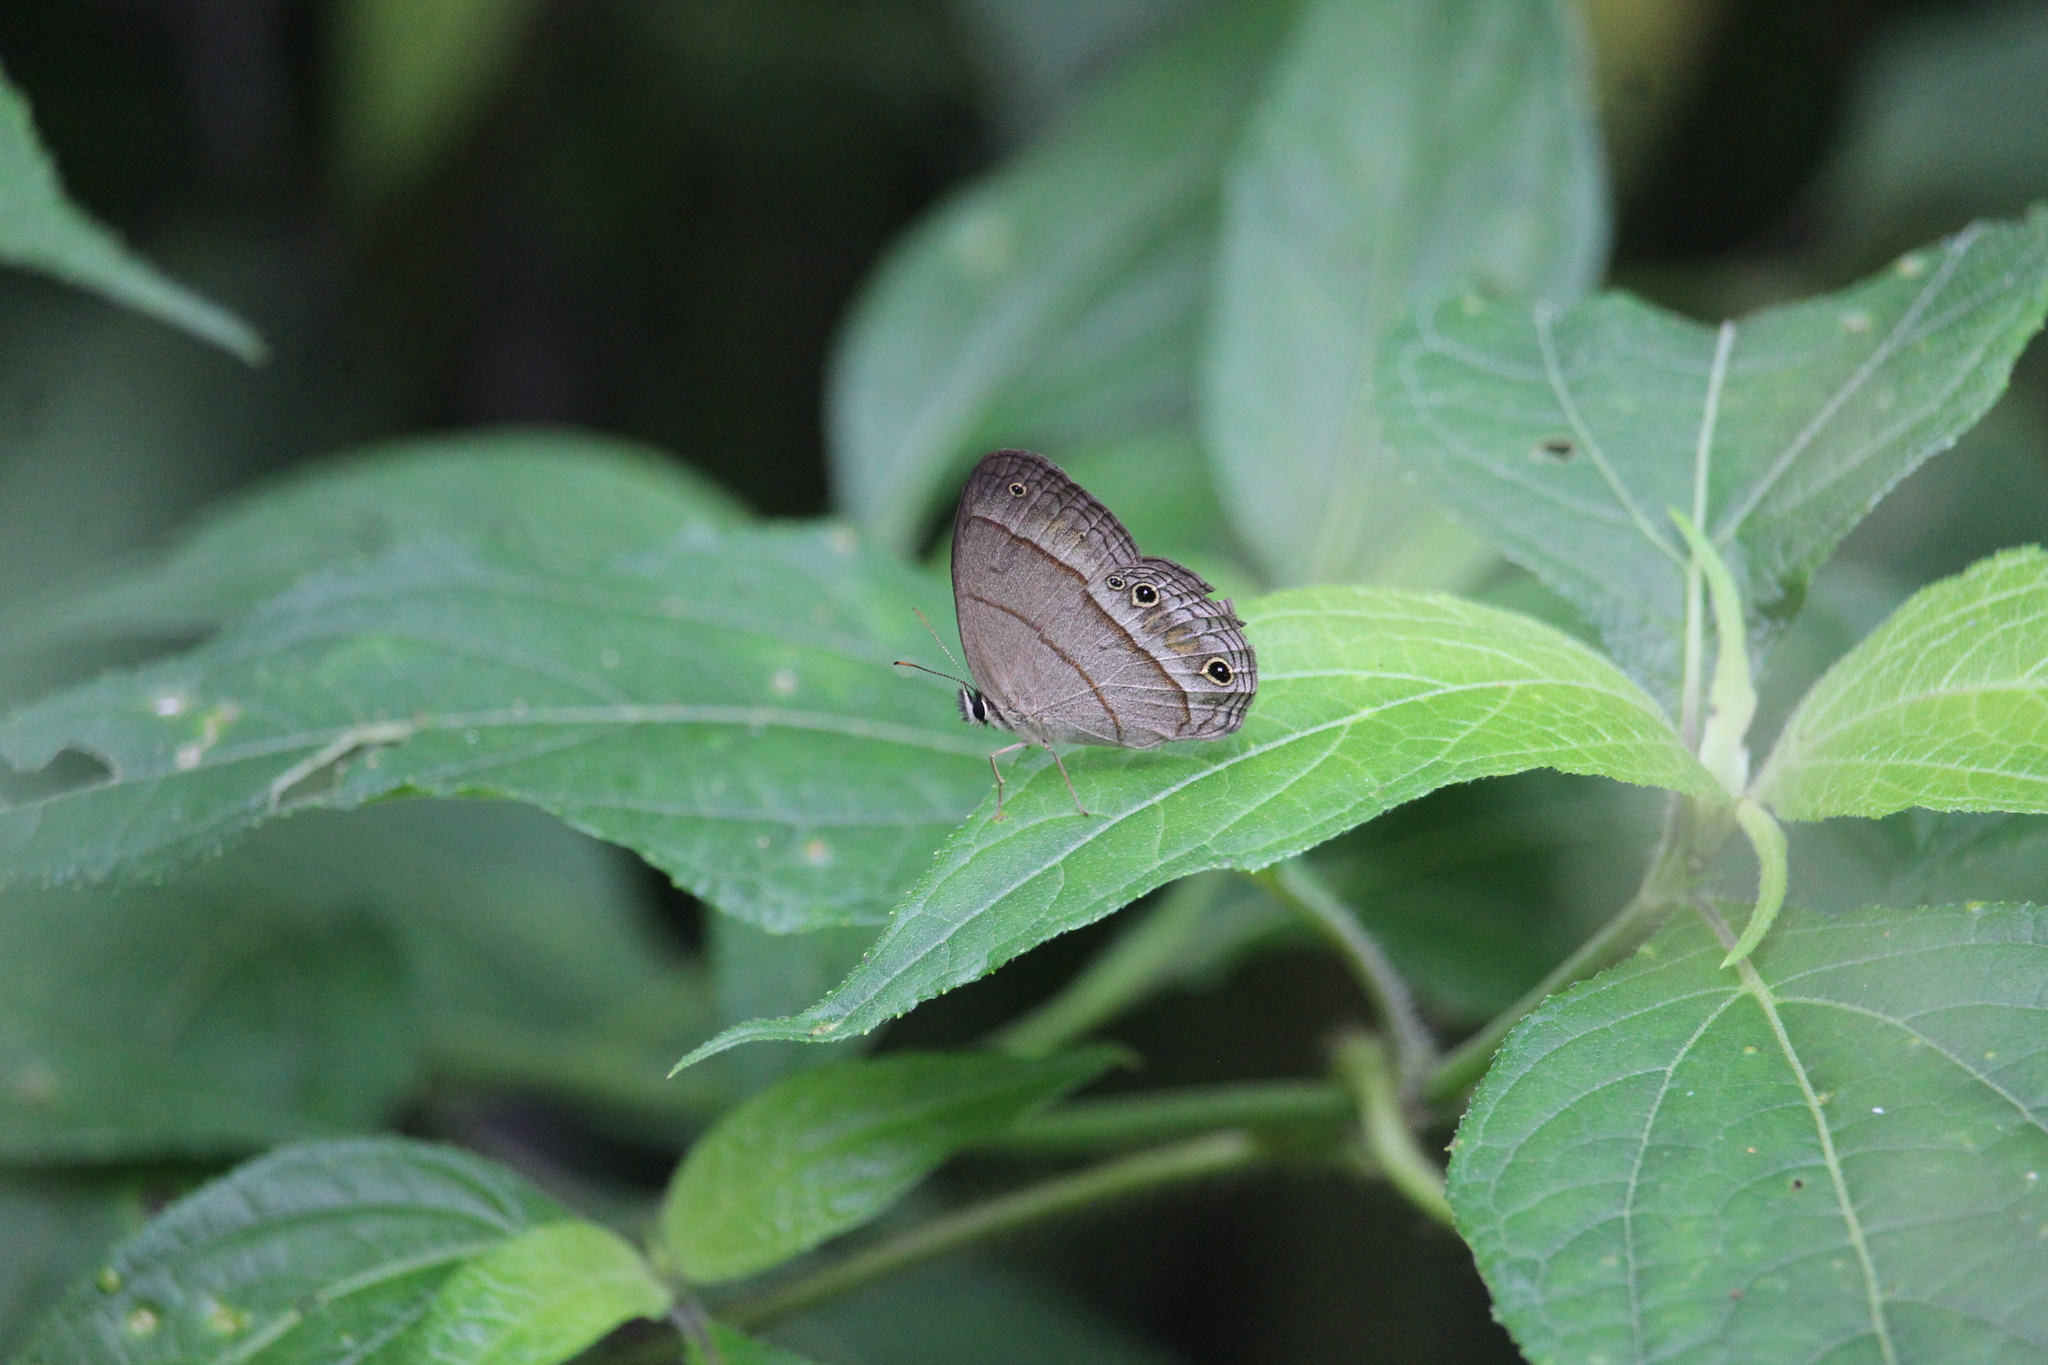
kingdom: Animalia
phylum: Arthropoda
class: Insecta
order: Lepidoptera
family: Nymphalidae
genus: Euptychia
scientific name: Euptychia Cissia pompilia
